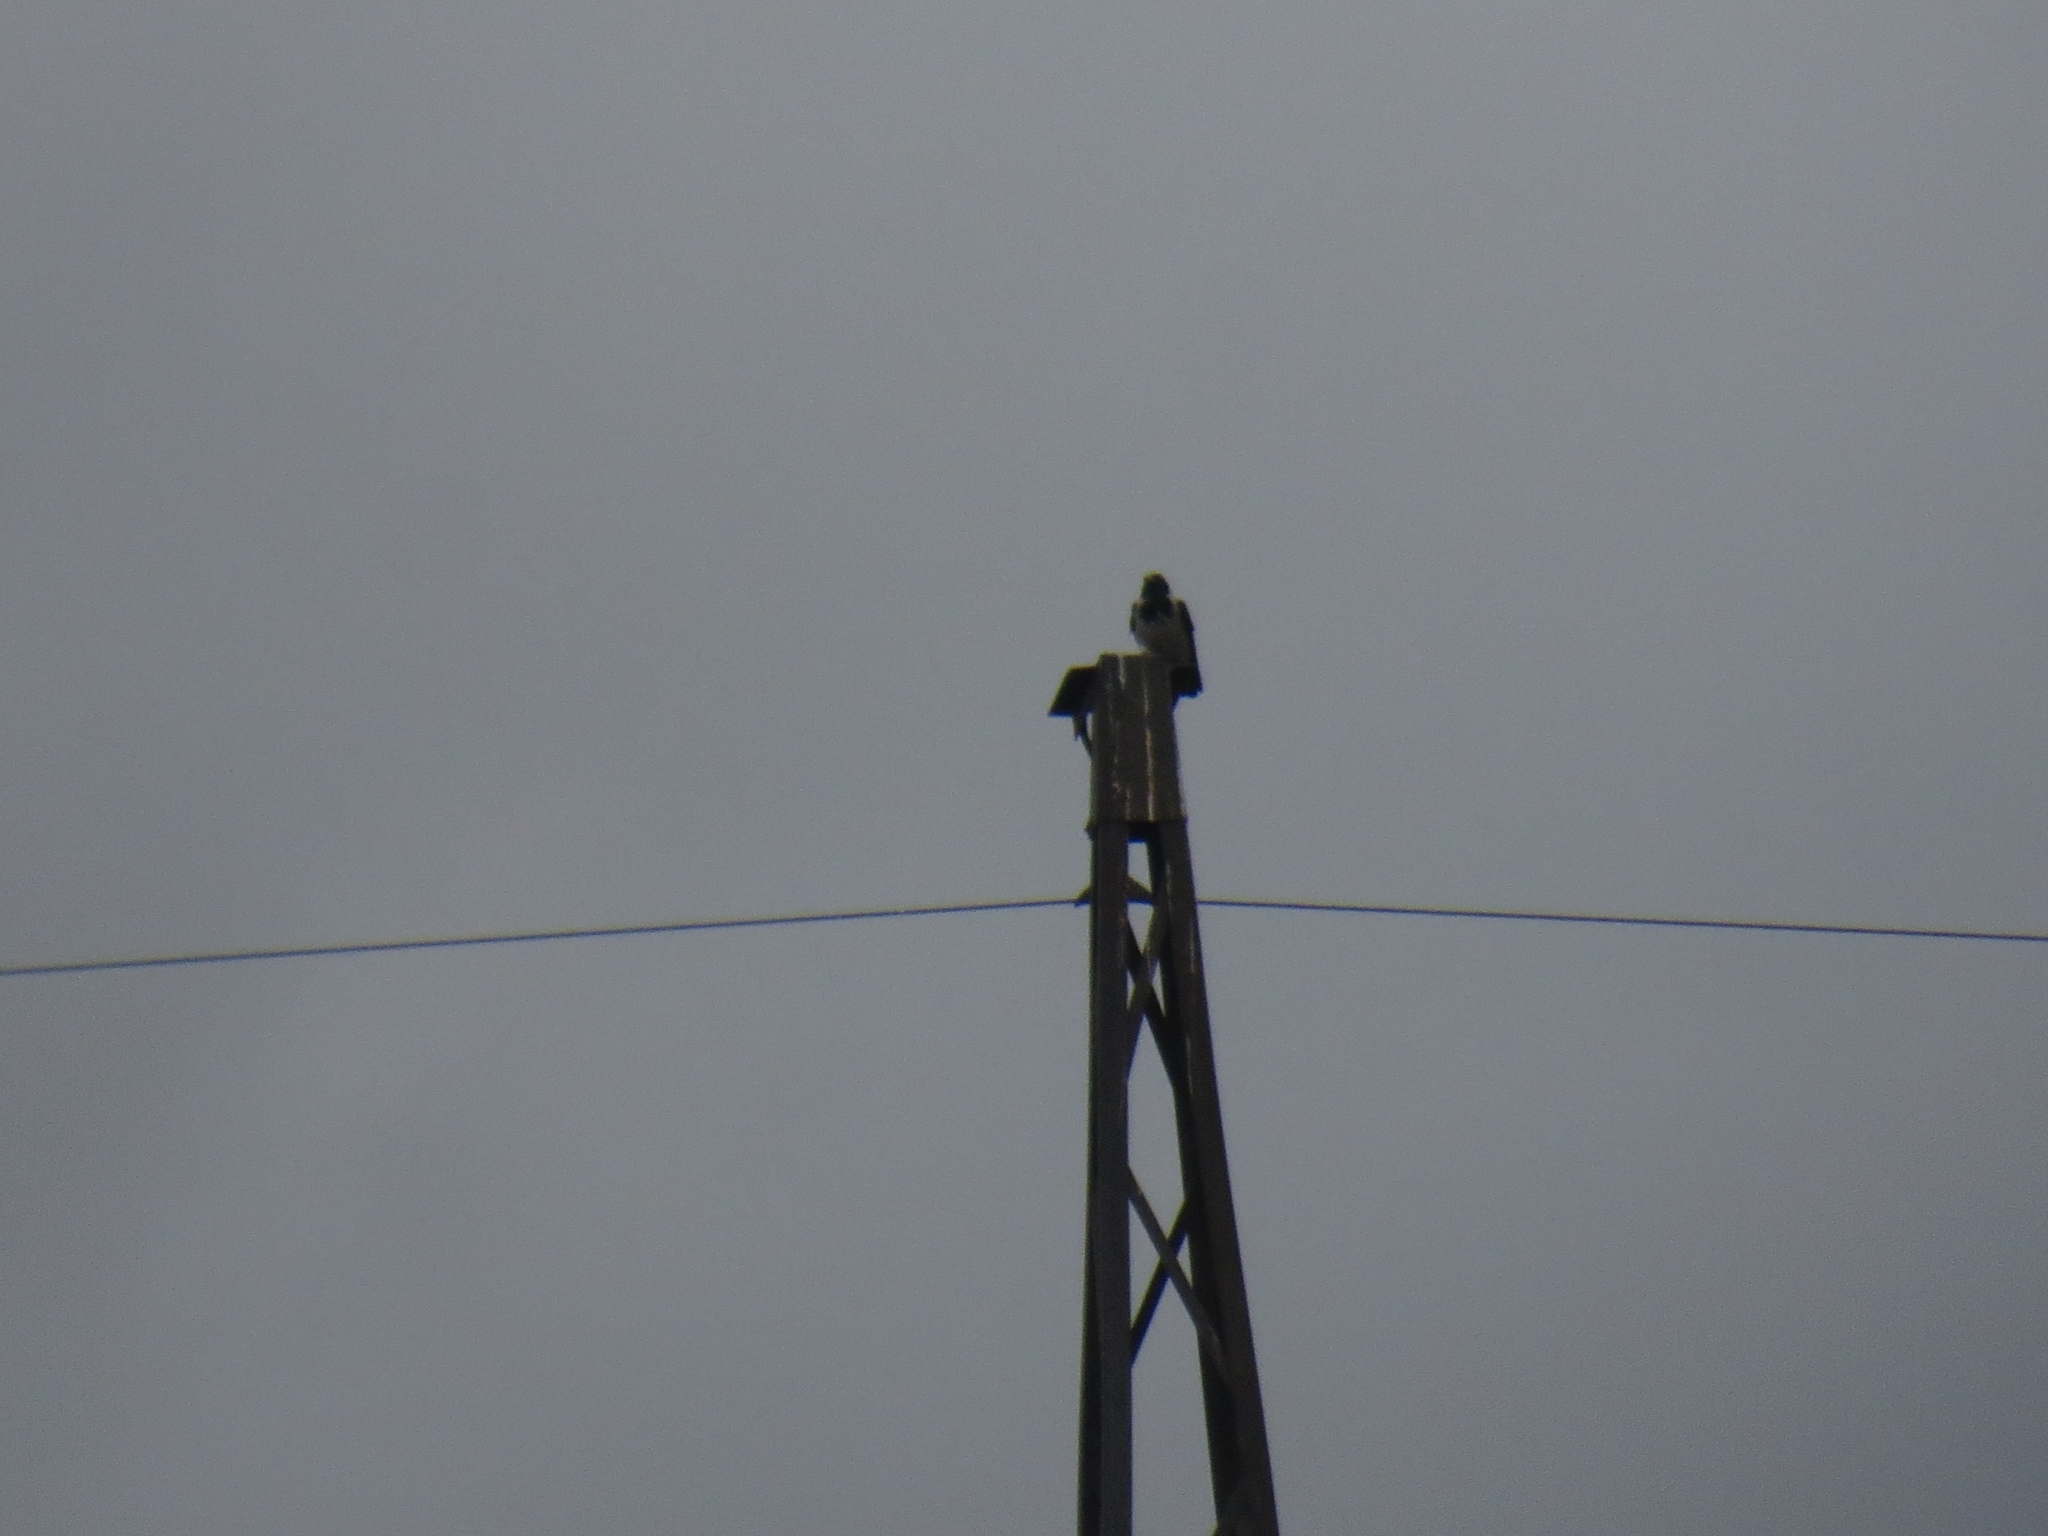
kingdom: Animalia
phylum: Chordata
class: Aves
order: Passeriformes
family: Corvidae
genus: Corvus
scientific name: Corvus cornix
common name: Hooded crow
